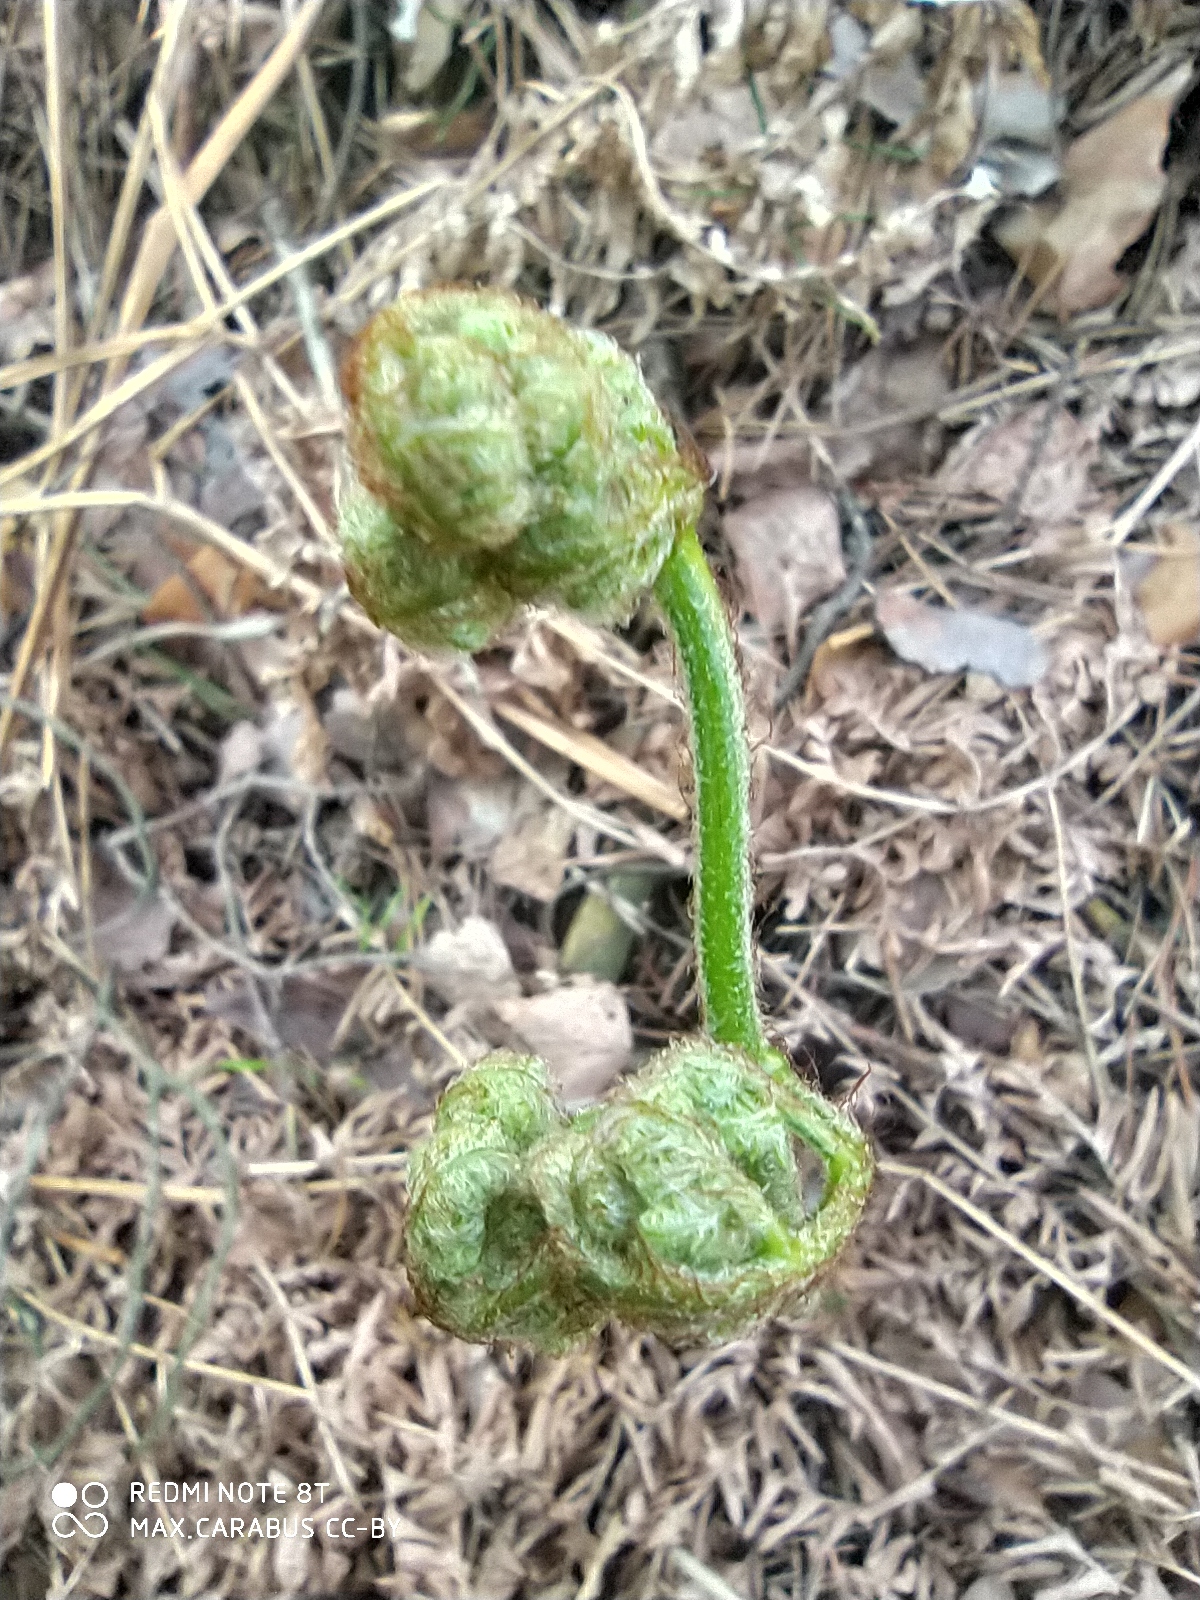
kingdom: Plantae
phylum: Tracheophyta
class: Polypodiopsida
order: Polypodiales
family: Dennstaedtiaceae
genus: Pteridium
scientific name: Pteridium aquilinum
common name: Bracken
